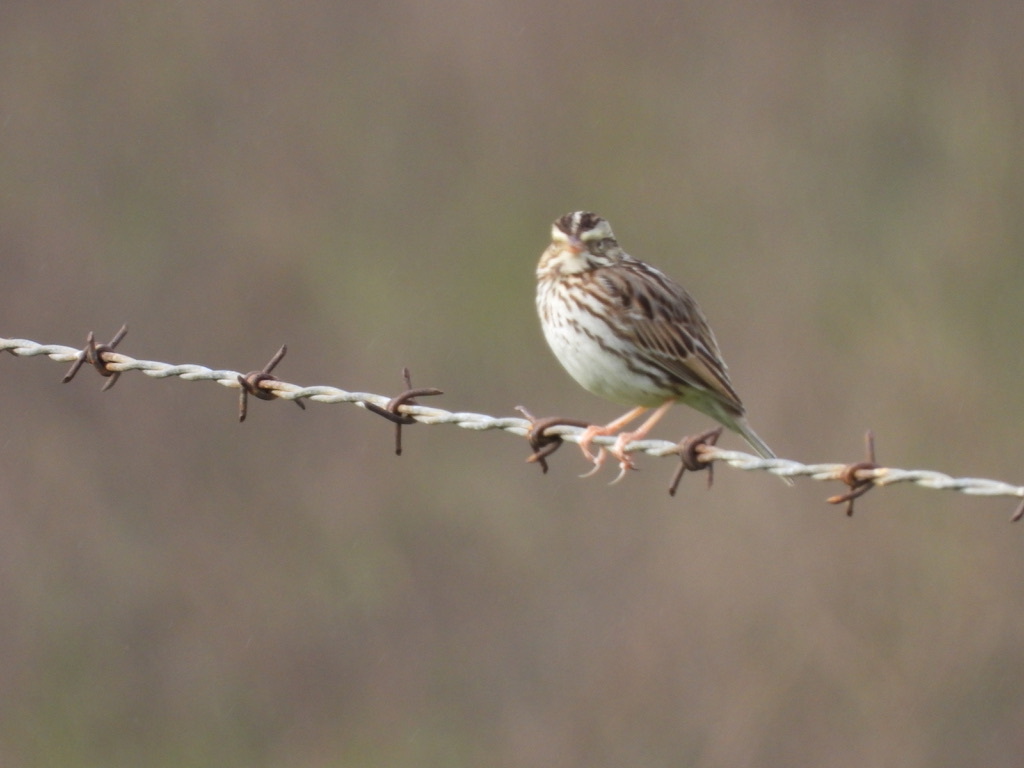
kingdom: Animalia
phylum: Chordata
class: Aves
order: Passeriformes
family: Passerellidae
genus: Passerculus
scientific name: Passerculus sandwichensis
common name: Savannah sparrow
